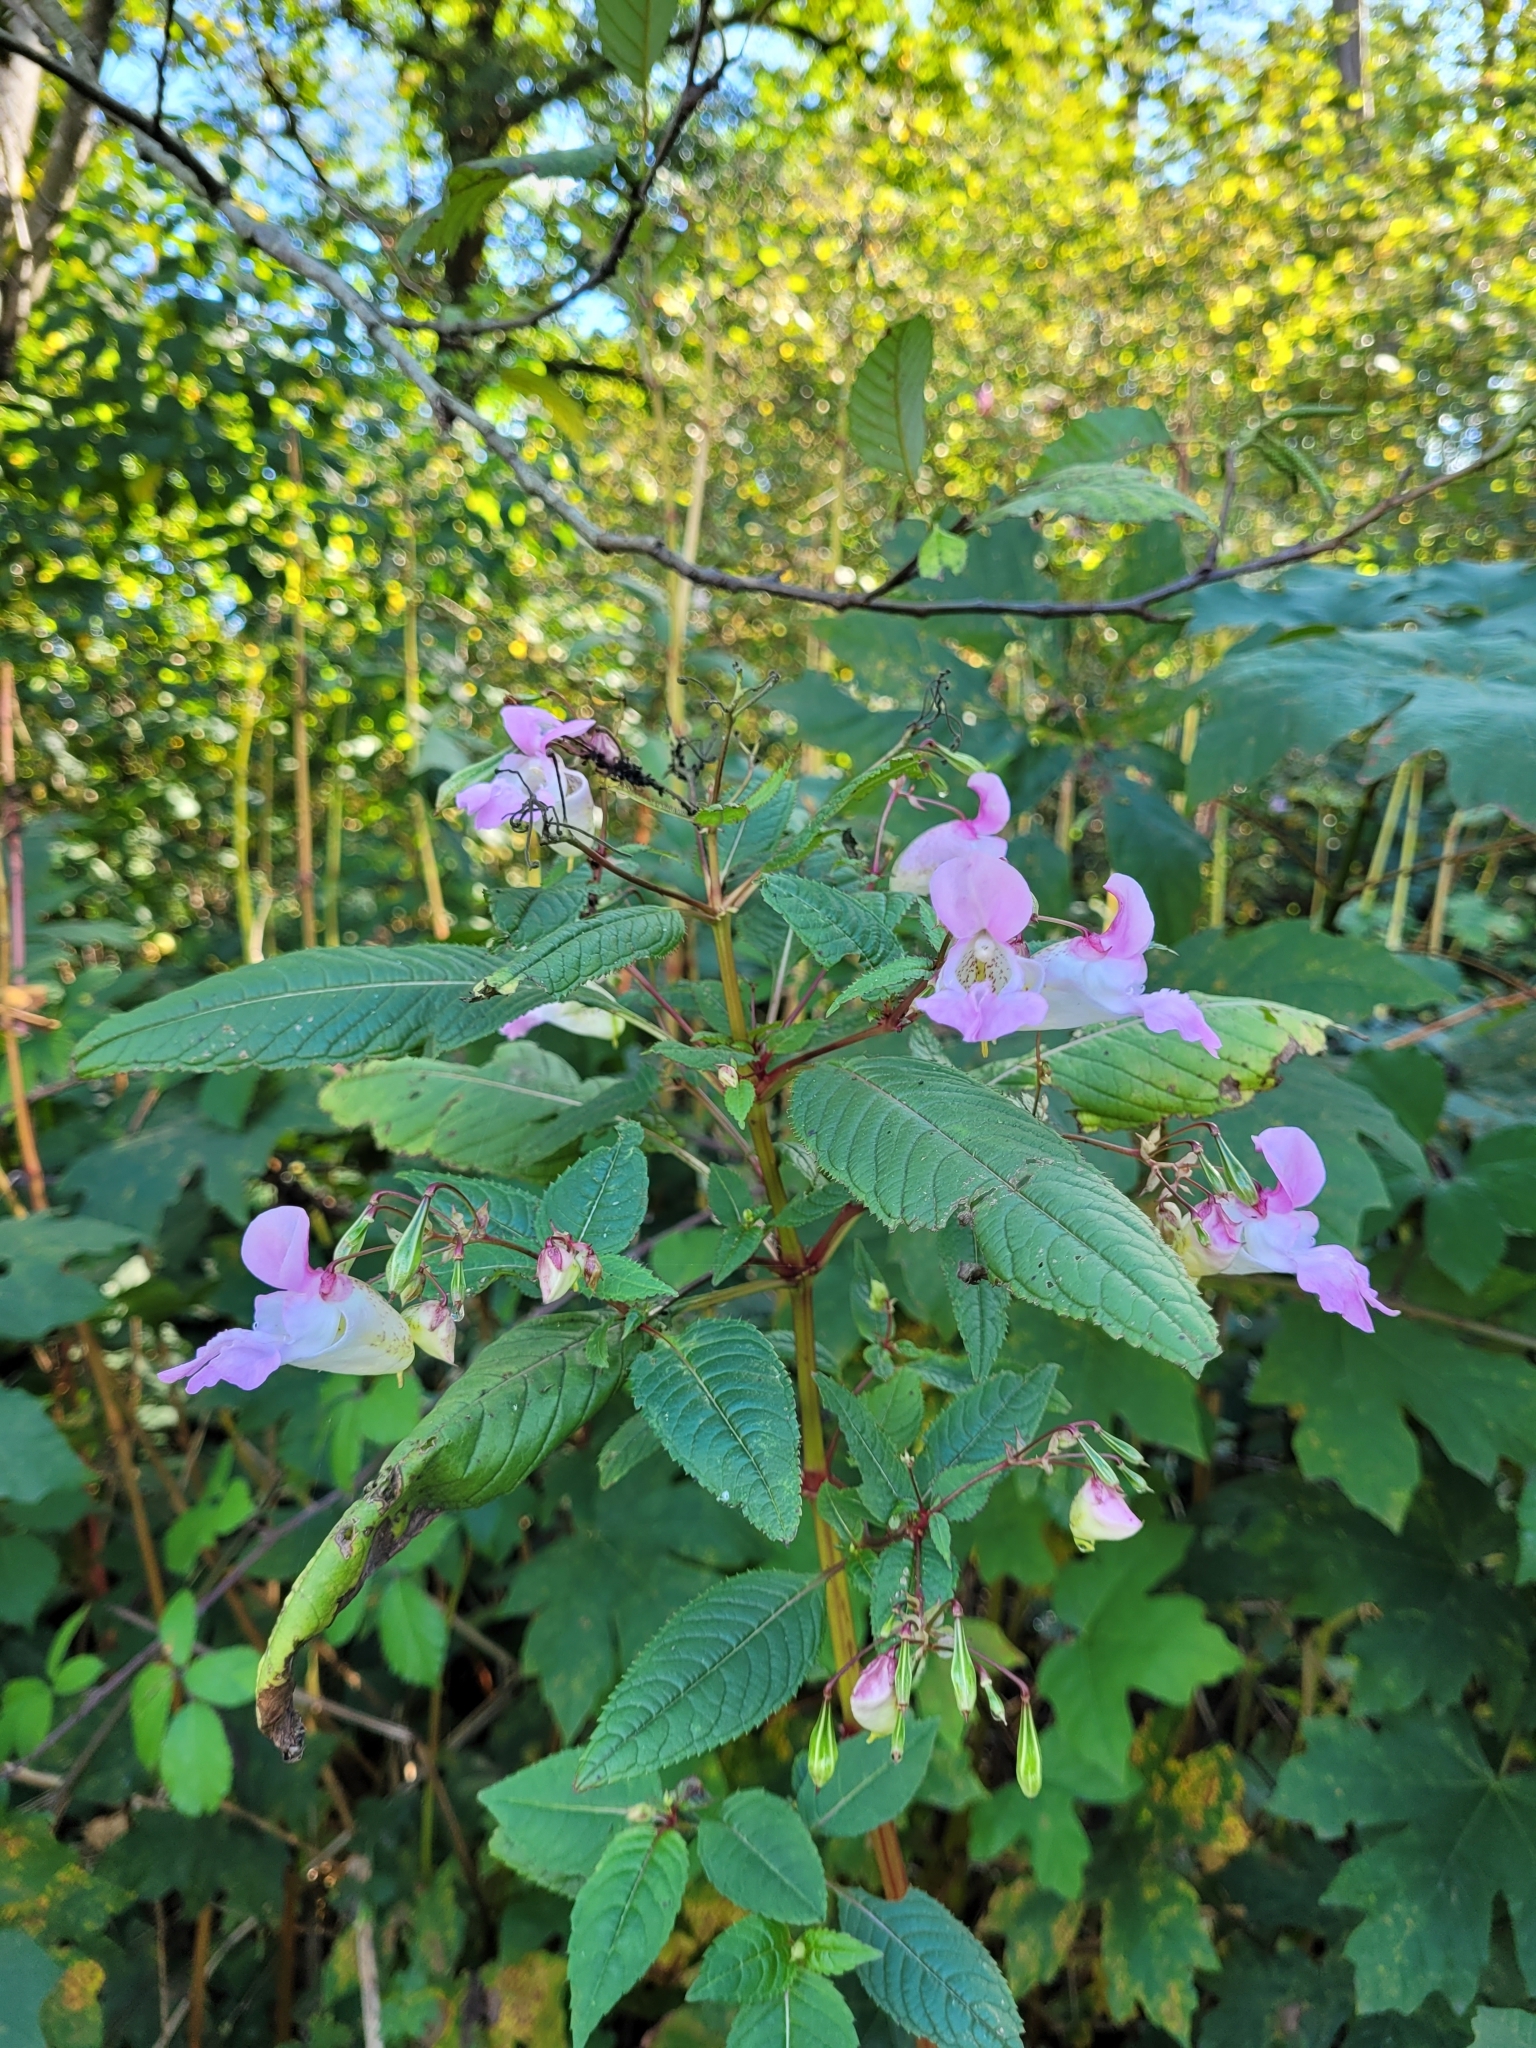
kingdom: Plantae
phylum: Tracheophyta
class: Magnoliopsida
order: Ericales
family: Balsaminaceae
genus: Impatiens
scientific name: Impatiens glandulifera
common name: Himalayan balsam
